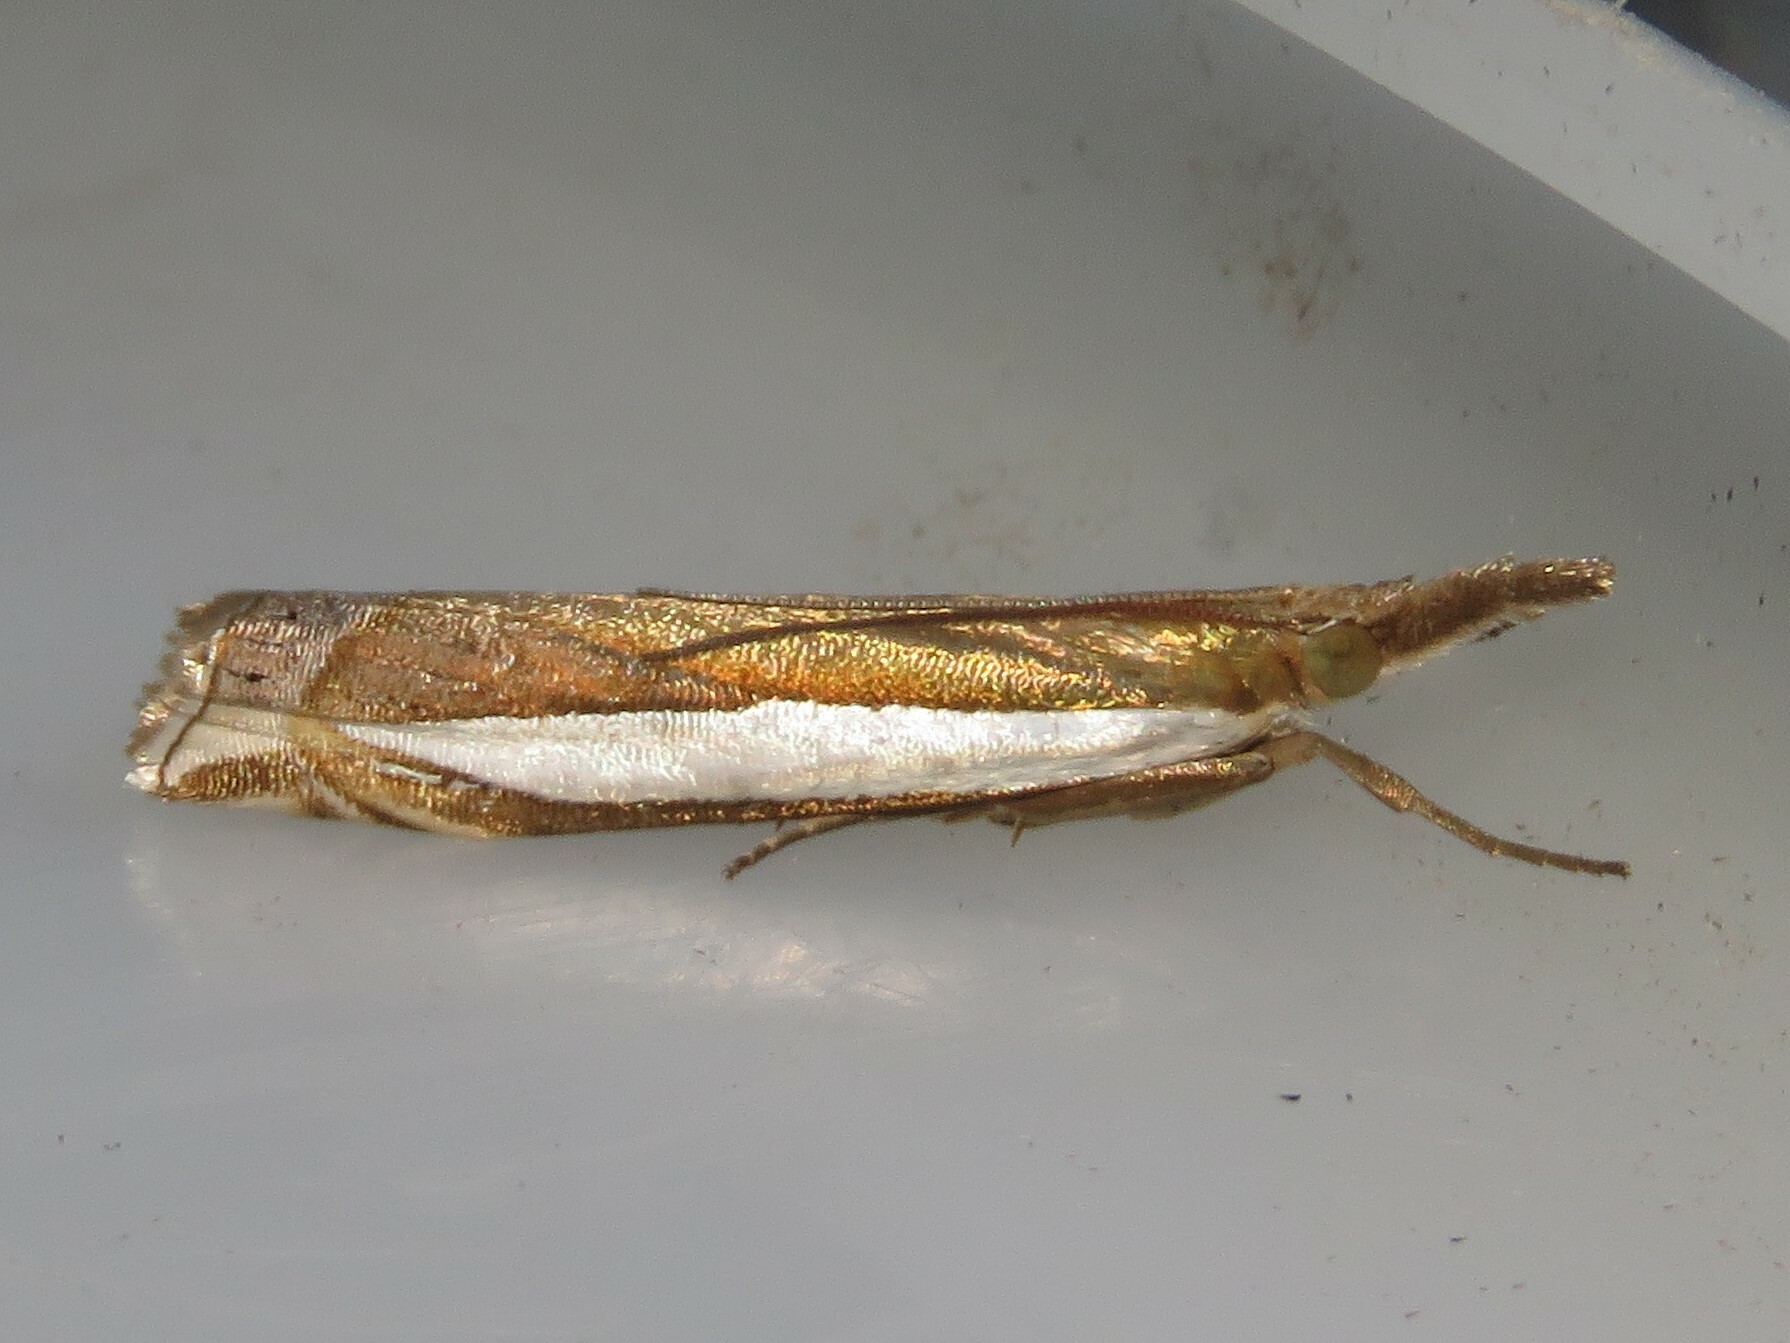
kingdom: Animalia
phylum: Arthropoda
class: Insecta
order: Lepidoptera
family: Crambidae
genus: Crambus
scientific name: Crambus leachellus
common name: Leach's grass-veneer
